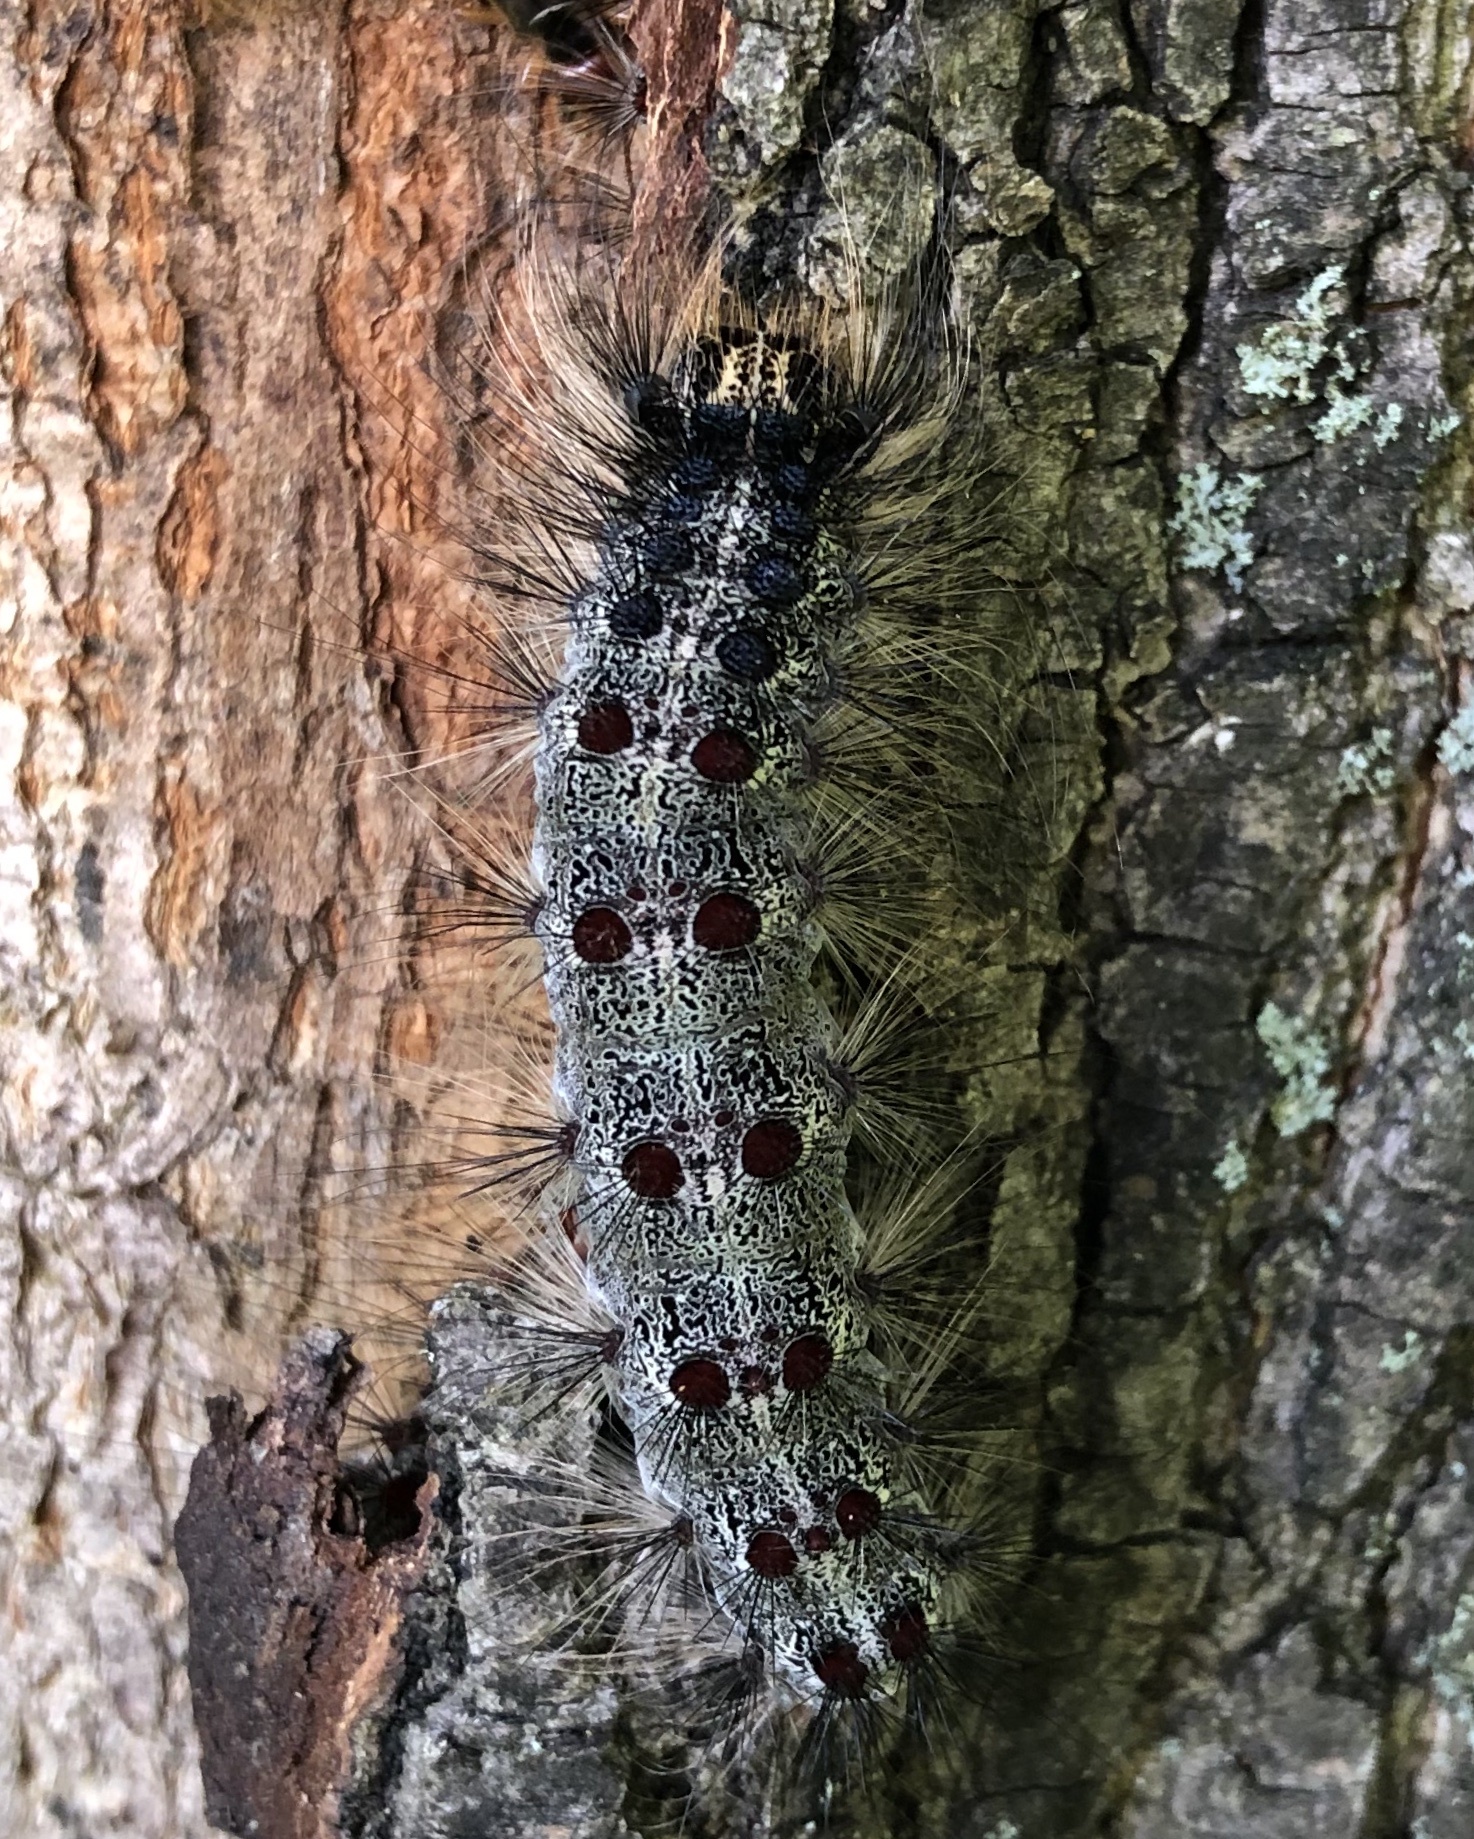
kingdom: Animalia
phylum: Arthropoda
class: Insecta
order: Lepidoptera
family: Erebidae
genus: Lymantria
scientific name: Lymantria dispar
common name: Gypsy moth
